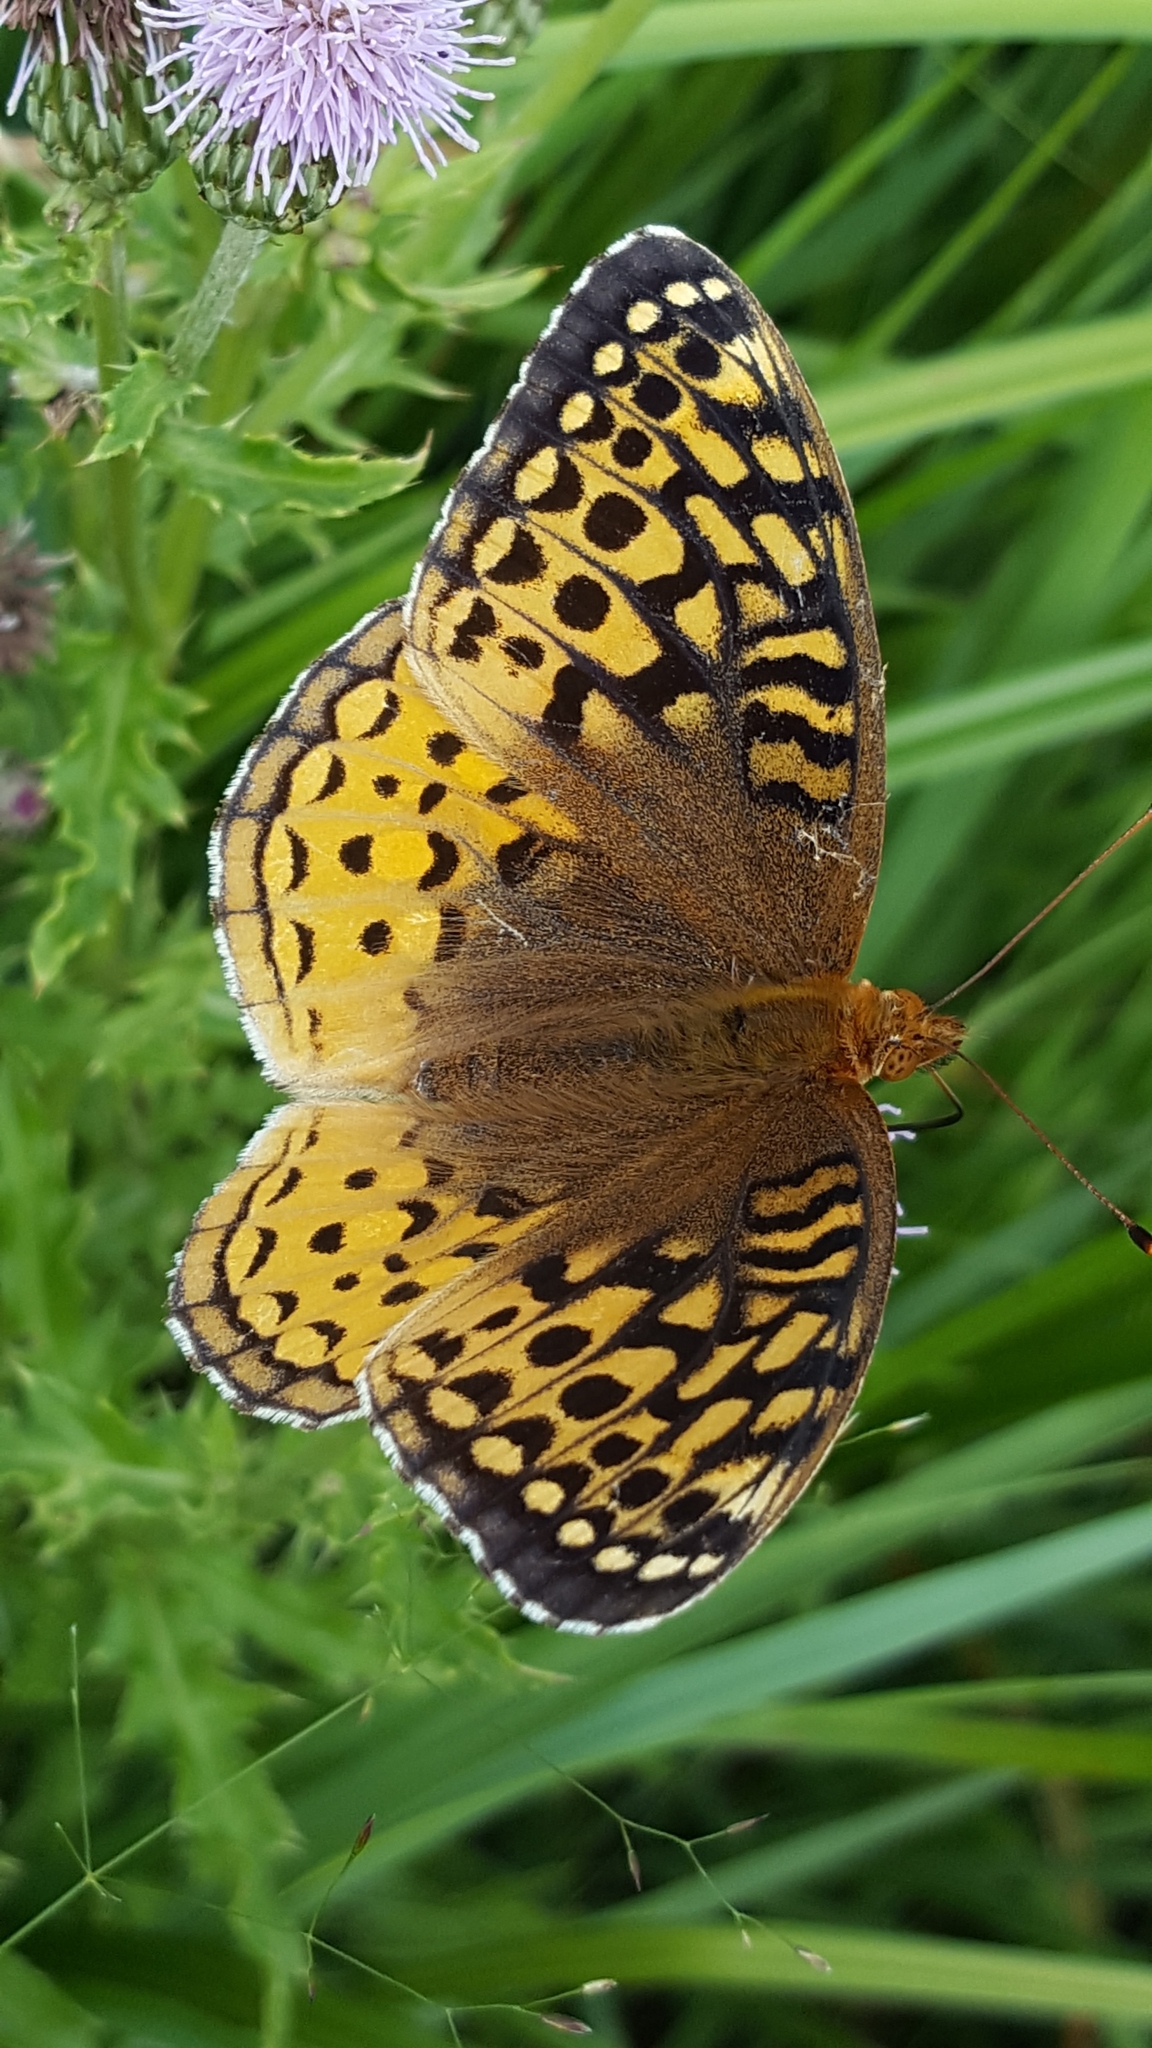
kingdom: Animalia
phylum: Arthropoda
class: Insecta
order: Lepidoptera
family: Nymphalidae
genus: Speyeria
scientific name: Speyeria cybele
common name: Great spangled fritillary
